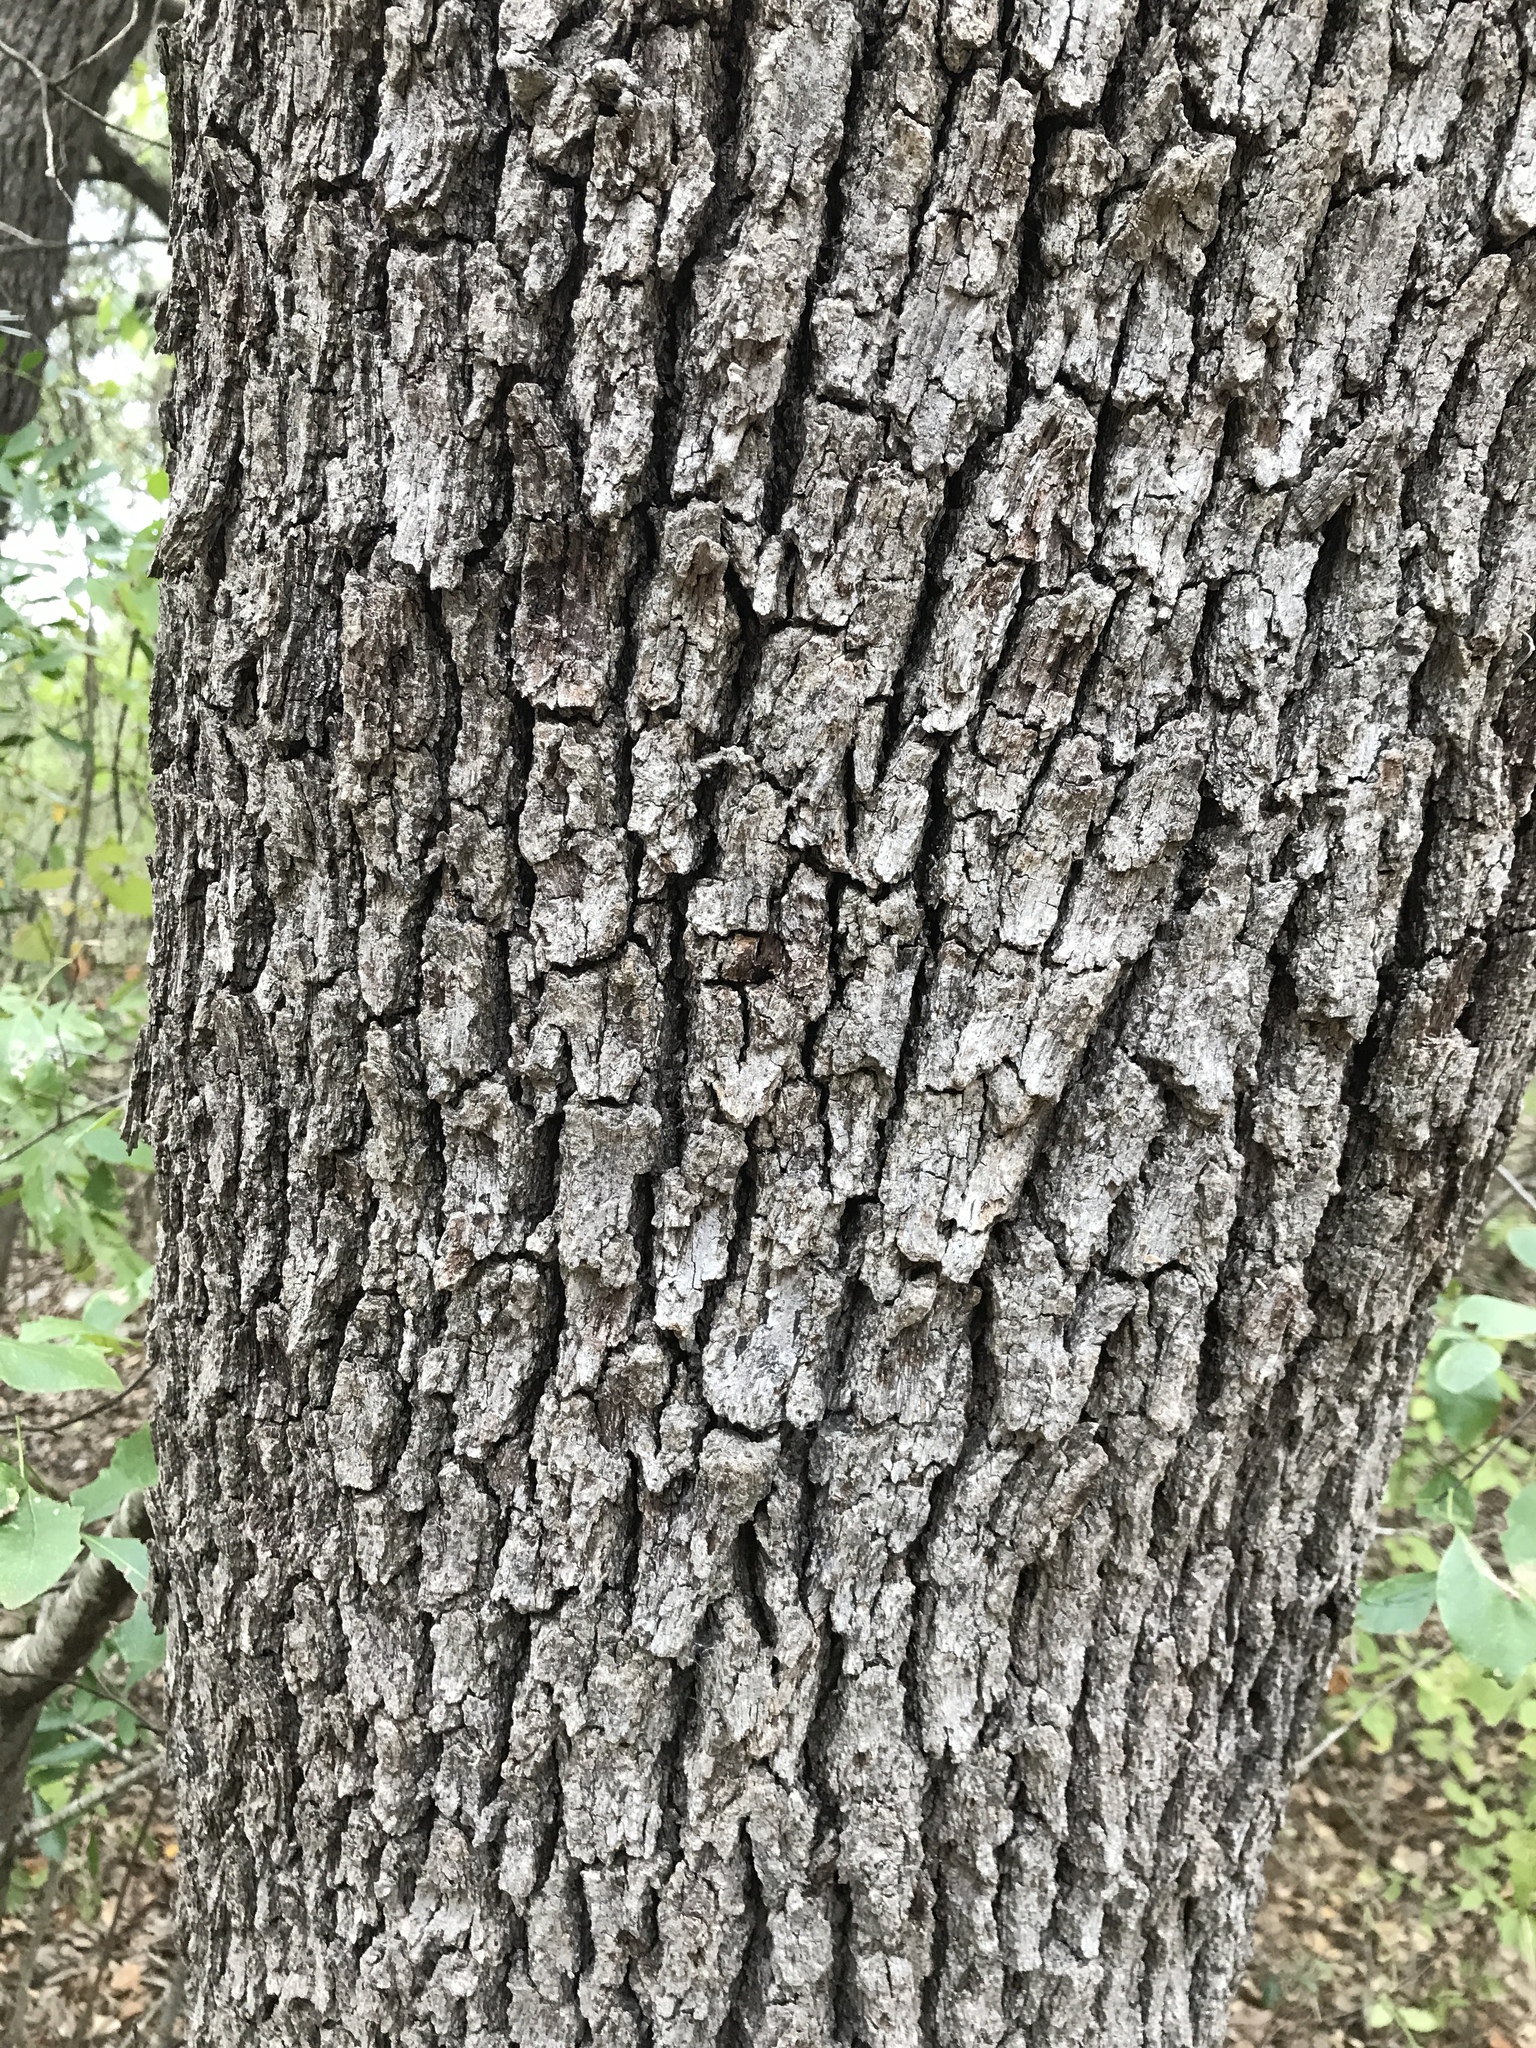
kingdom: Plantae
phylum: Tracheophyta
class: Magnoliopsida
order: Fagales
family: Fagaceae
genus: Quercus
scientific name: Quercus fusiformis
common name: Texas live oak
